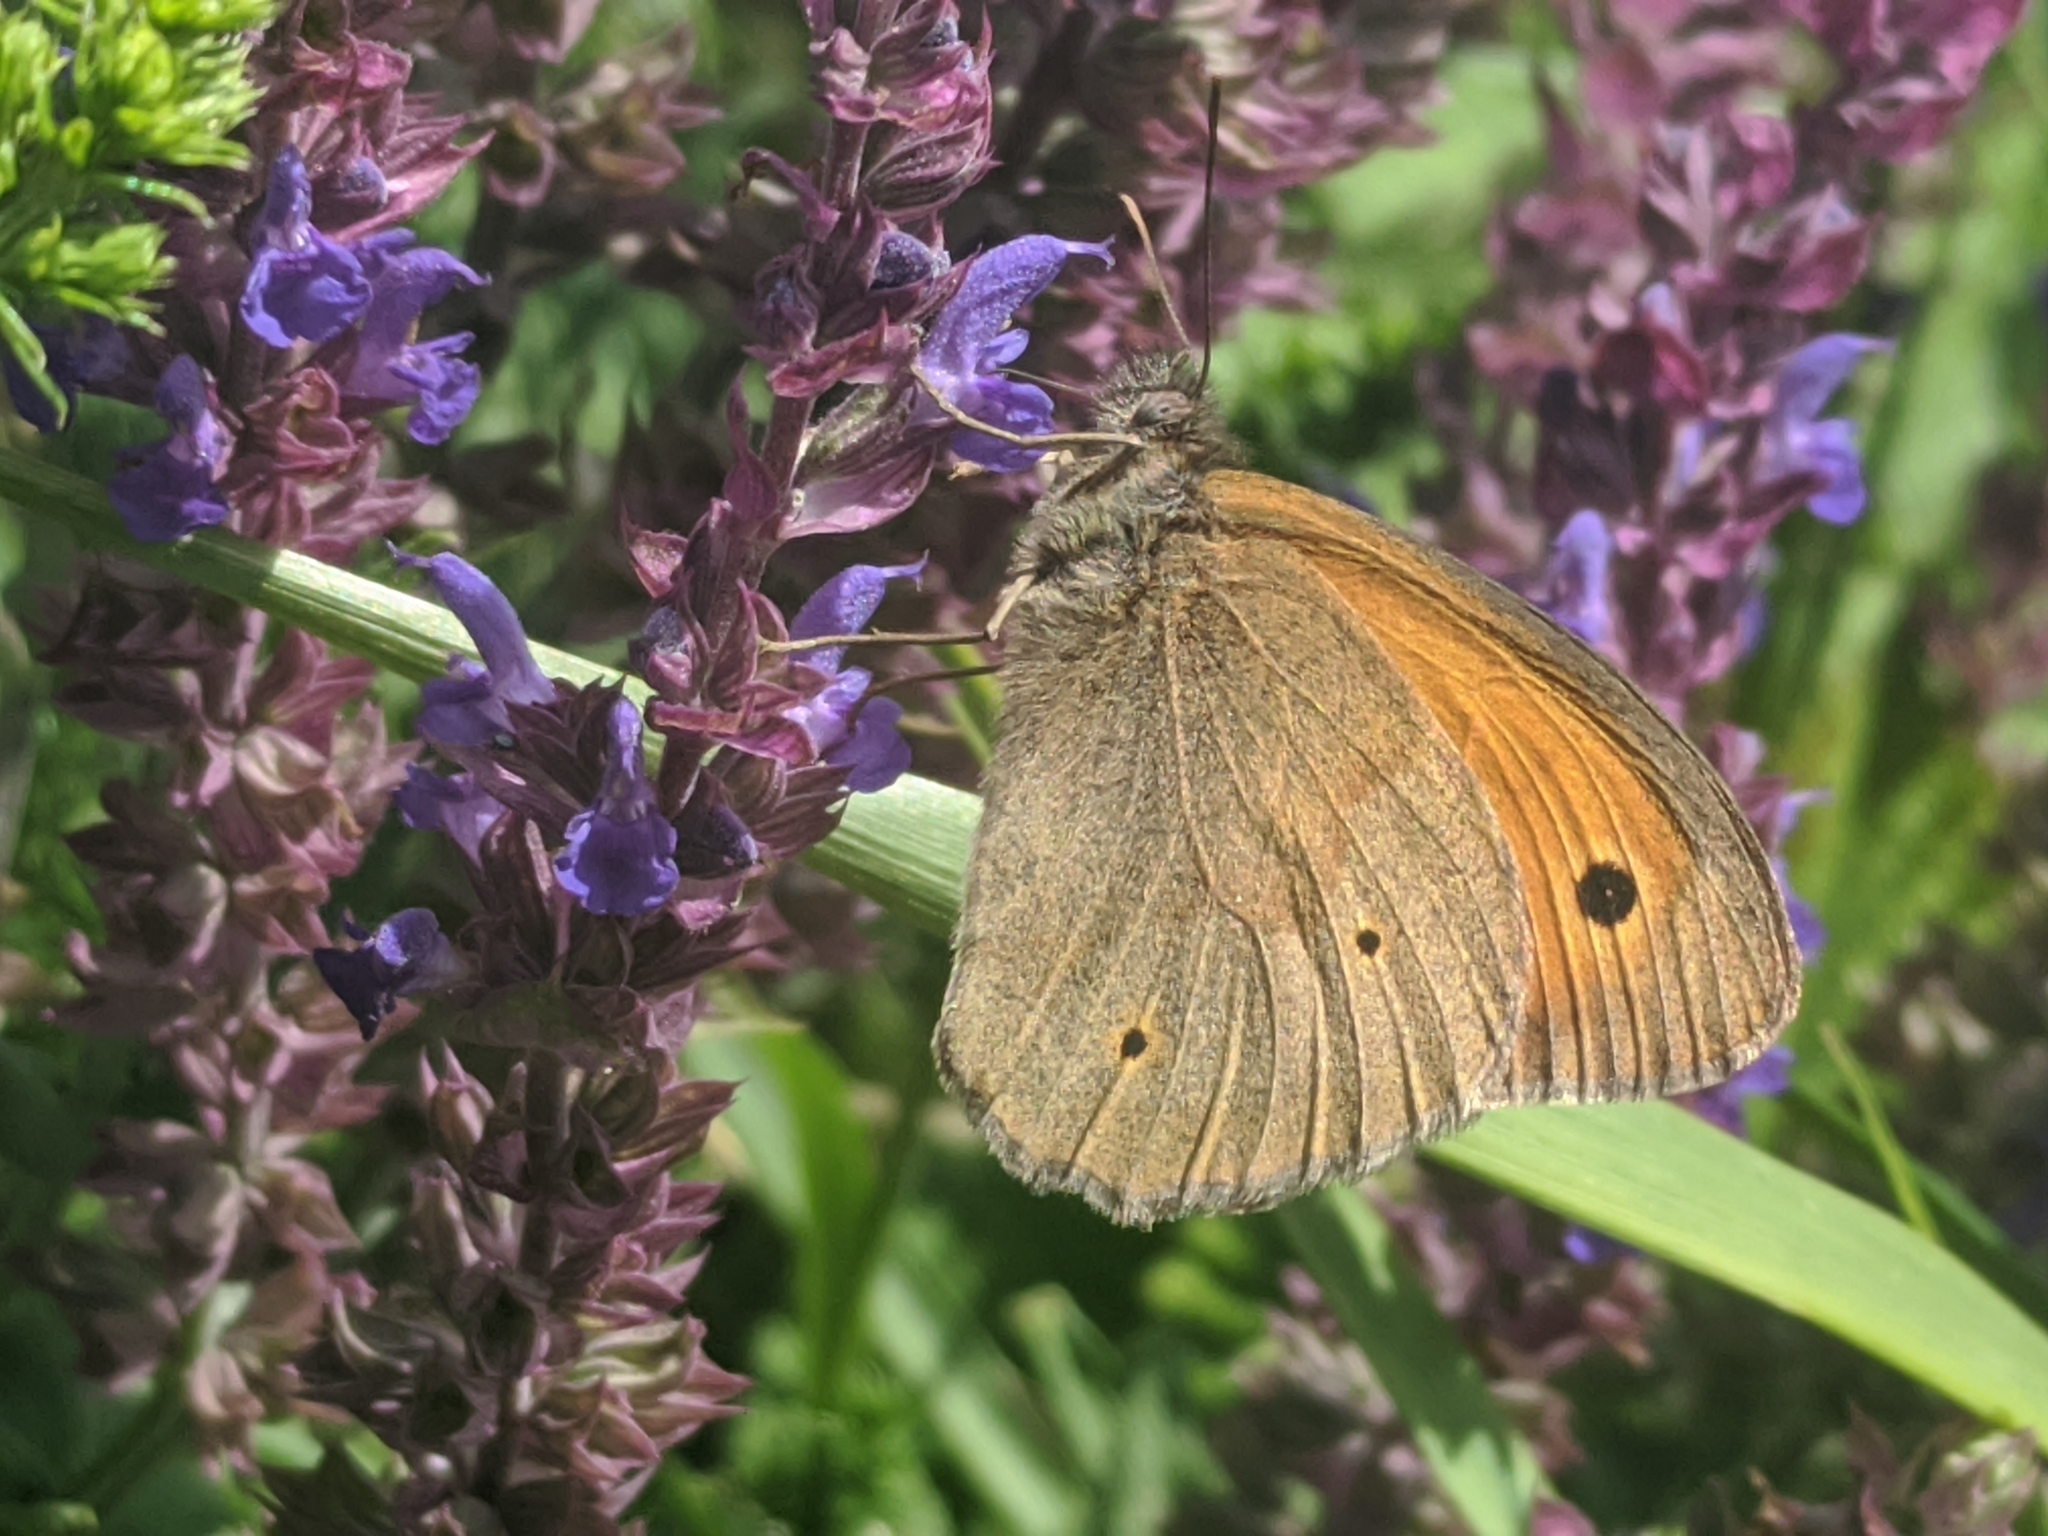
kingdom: Animalia
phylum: Arthropoda
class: Insecta
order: Lepidoptera
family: Nymphalidae
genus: Maniola
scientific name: Maniola jurtina
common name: Meadow brown
